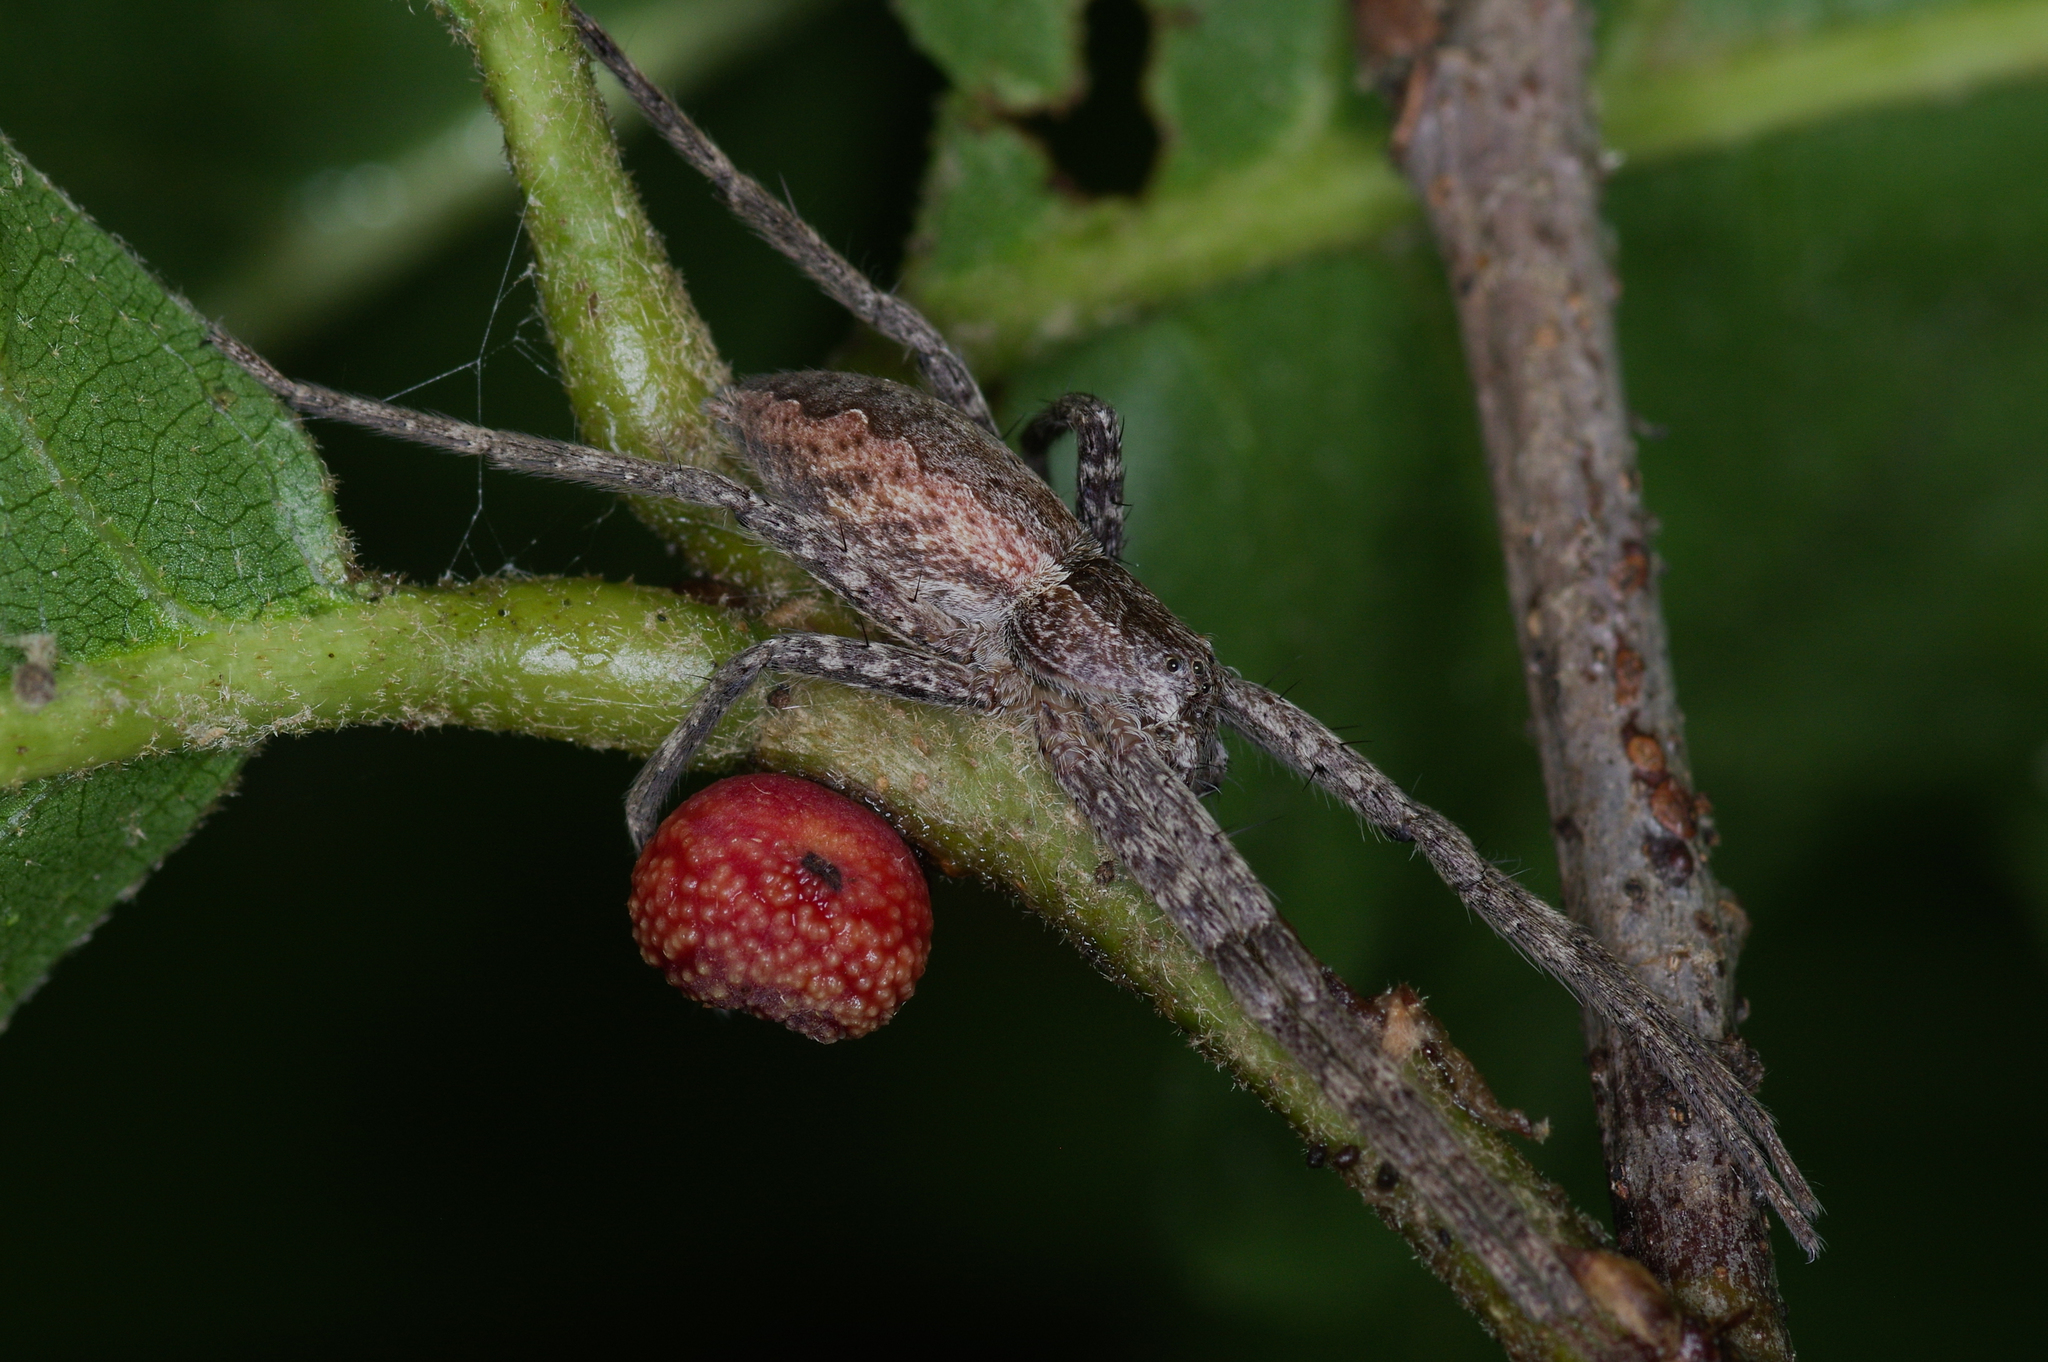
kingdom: Animalia
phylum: Arthropoda
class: Arachnida
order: Araneae
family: Pisauridae
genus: Pisaurina
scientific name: Pisaurina mira
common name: American nursery web spider
